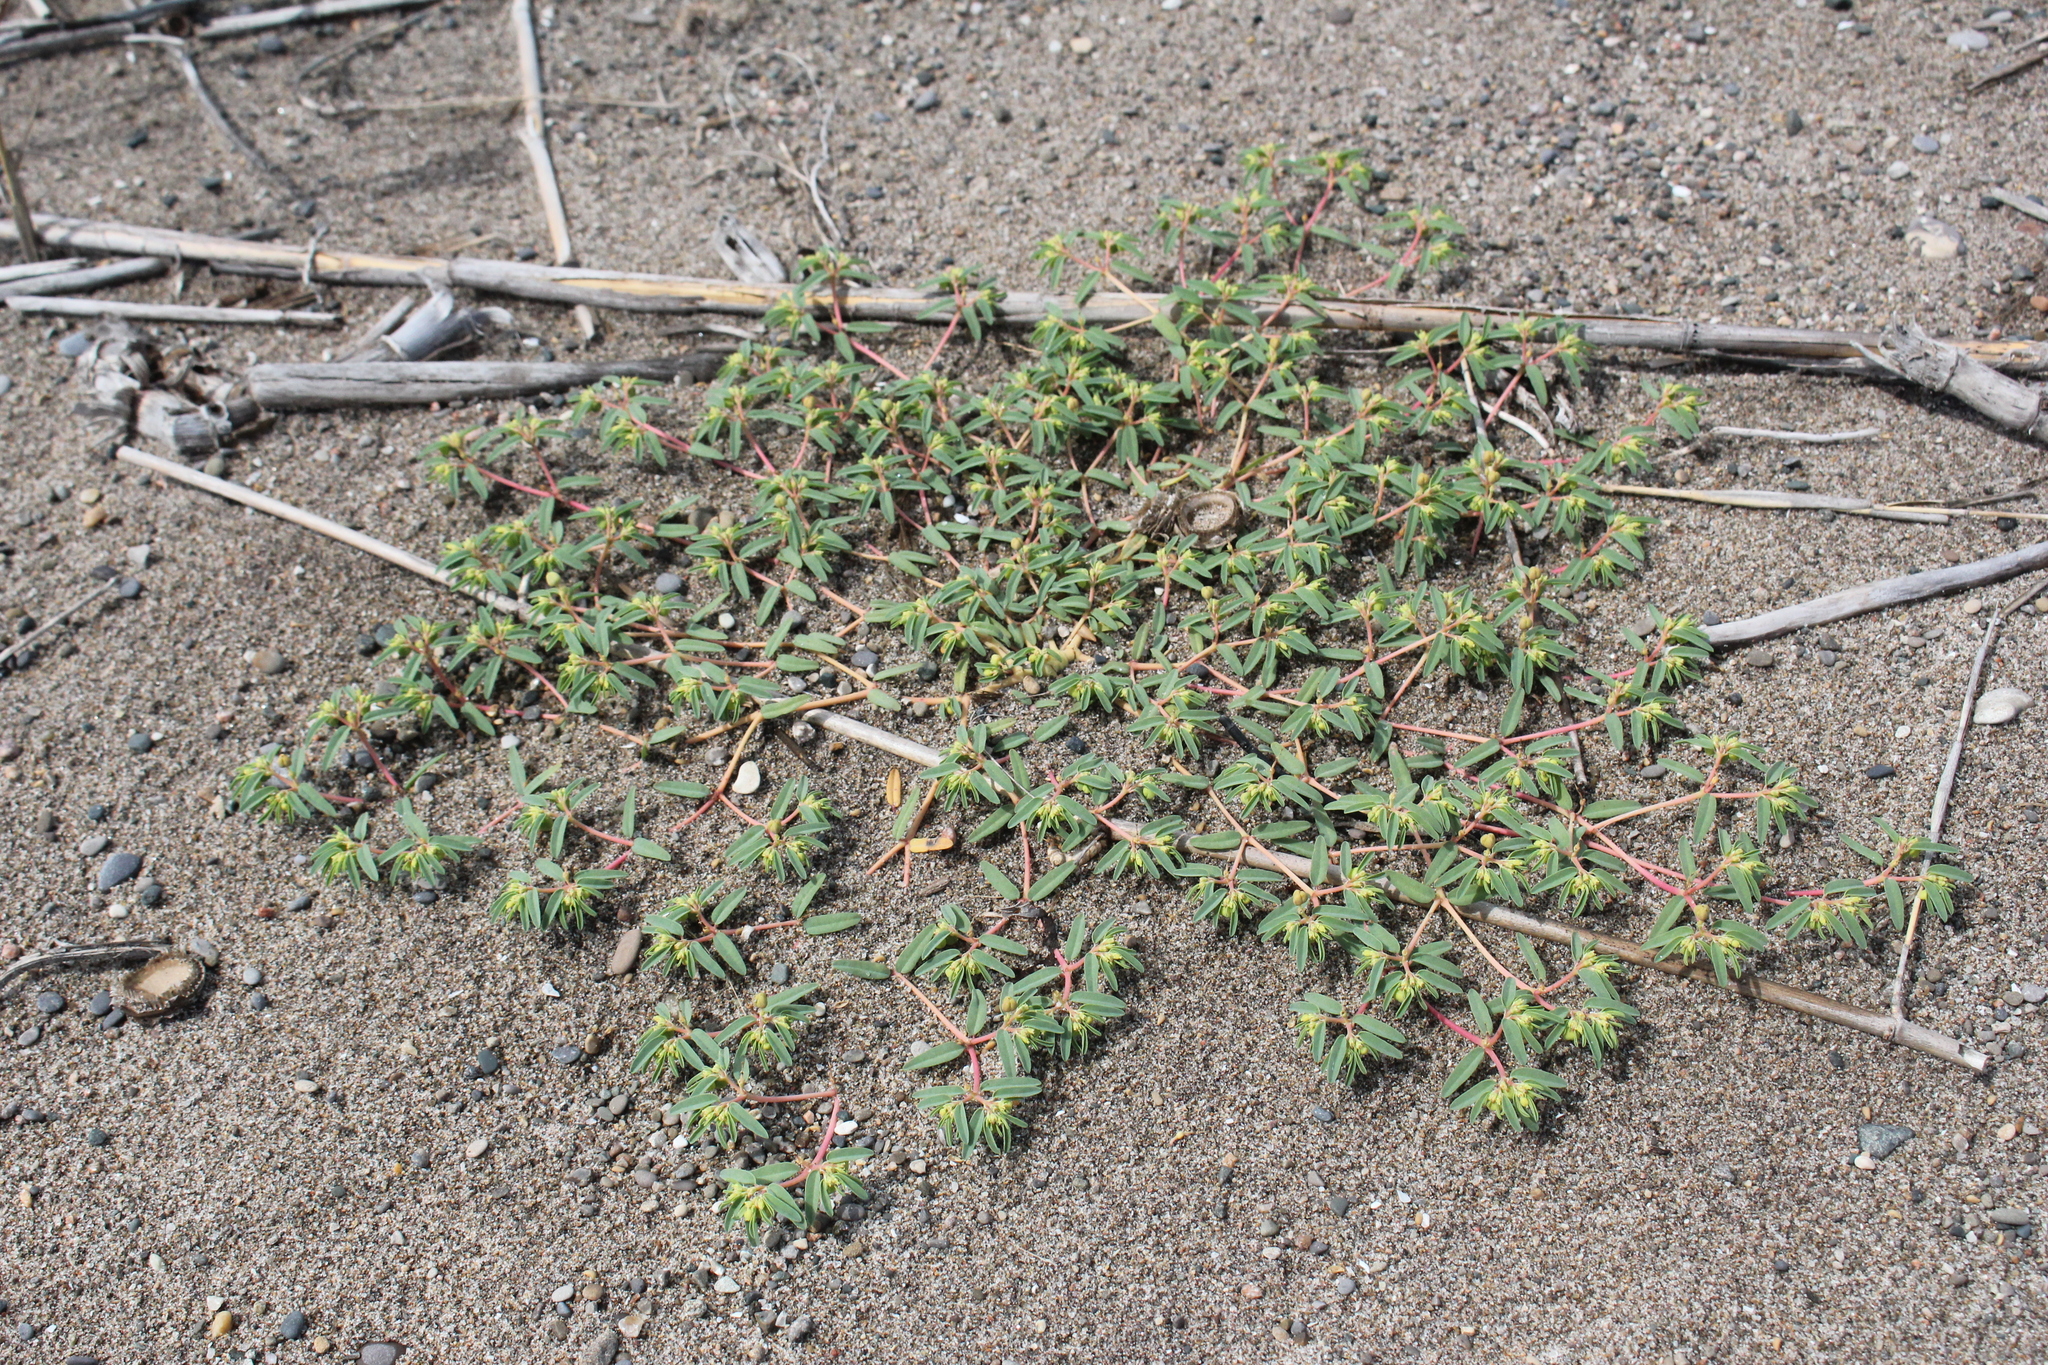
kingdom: Plantae
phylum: Tracheophyta
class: Magnoliopsida
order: Malpighiales
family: Euphorbiaceae
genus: Euphorbia
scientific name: Euphorbia polygonifolia
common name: Knotweed spurge
